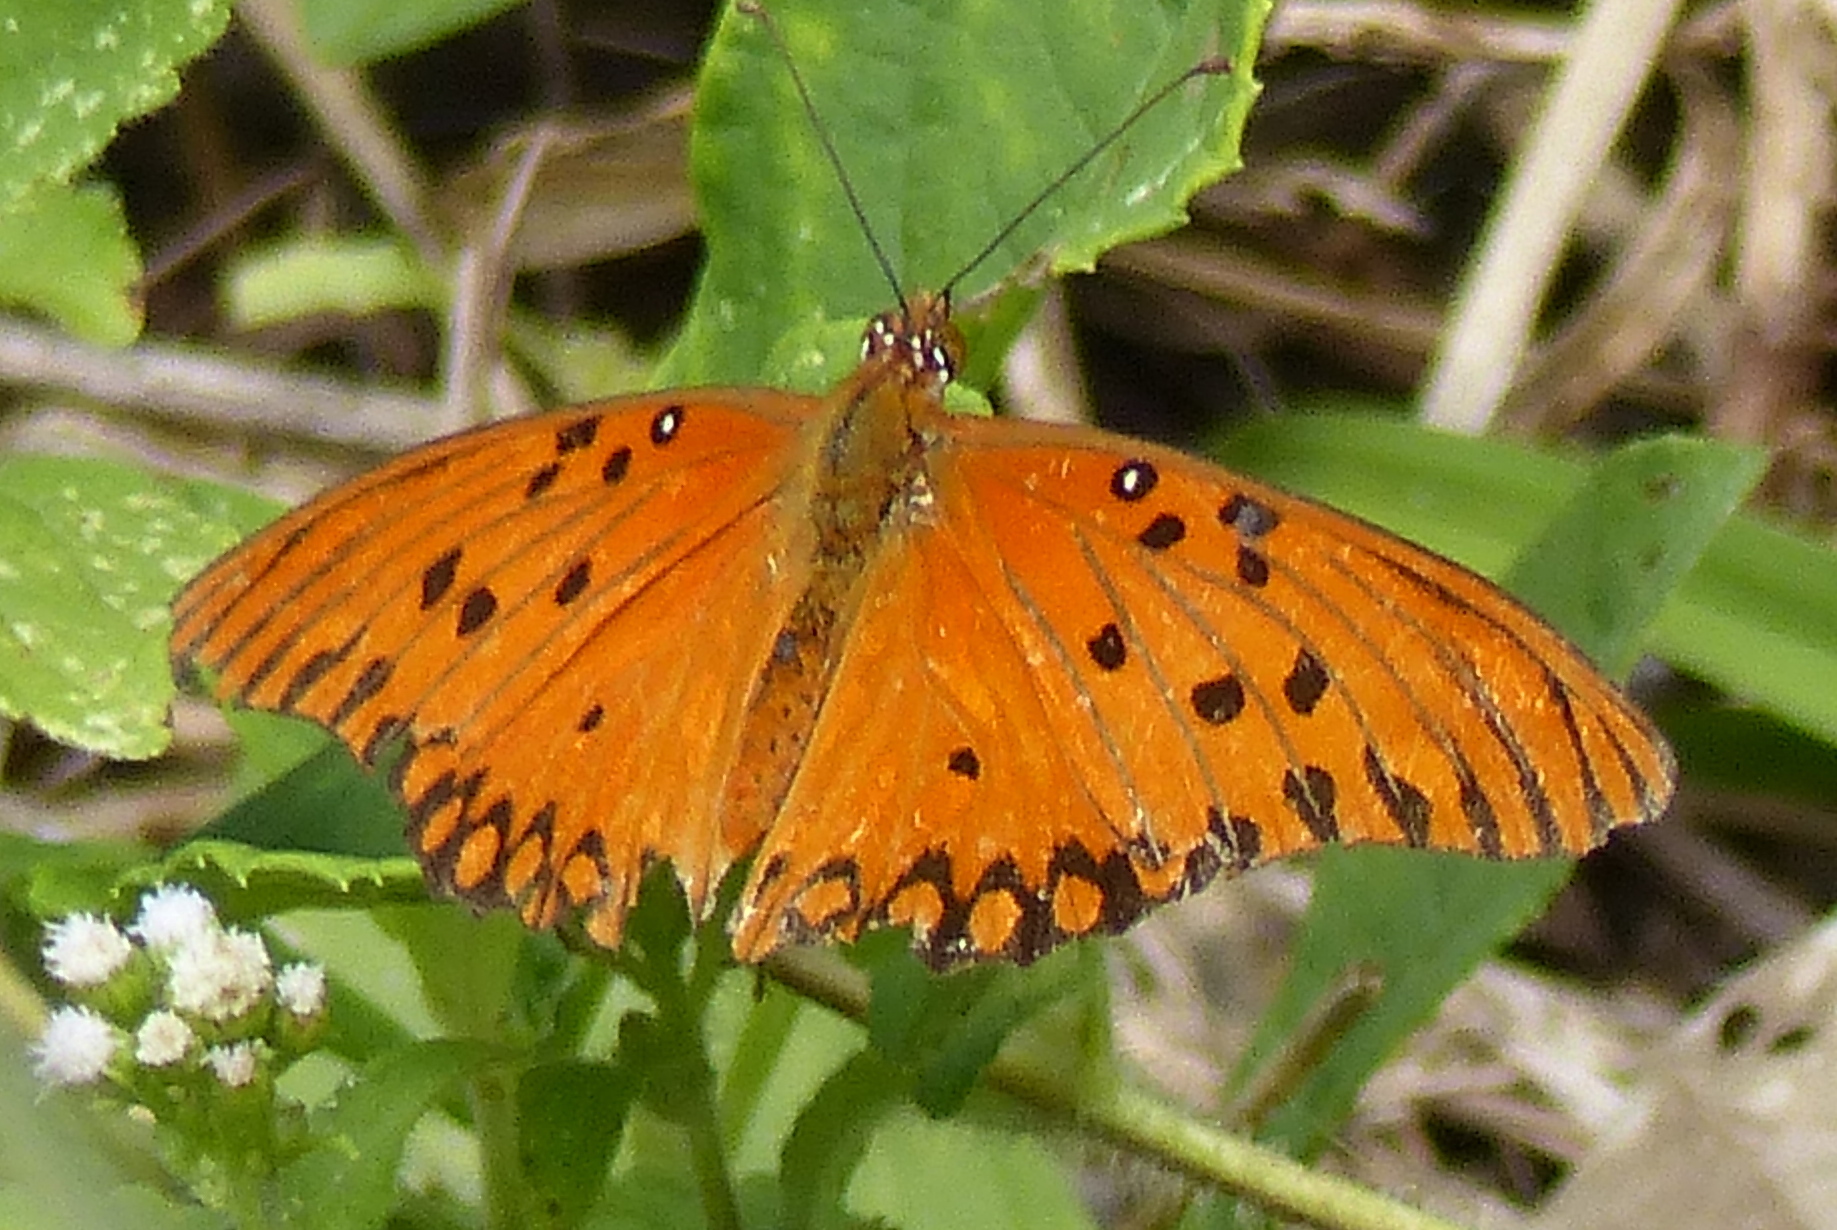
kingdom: Animalia
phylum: Arthropoda
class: Insecta
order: Lepidoptera
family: Nymphalidae
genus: Dione
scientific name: Dione vanillae
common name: Gulf fritillary
